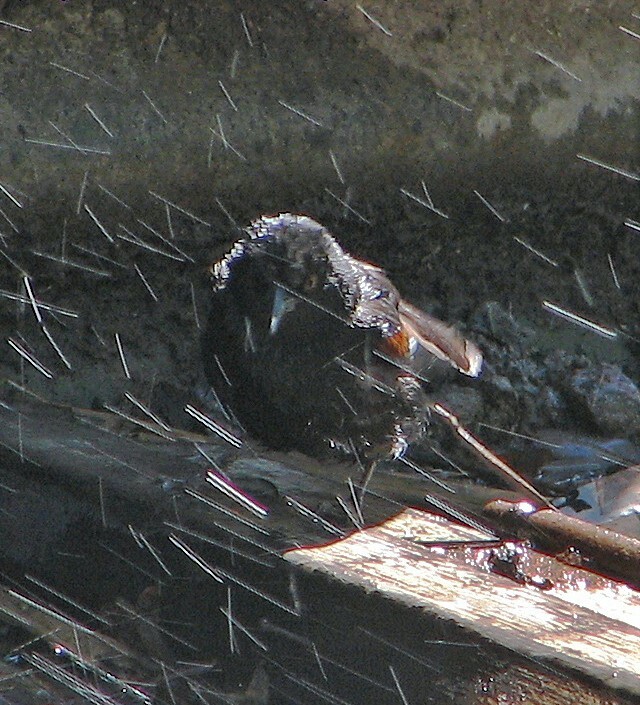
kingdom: Animalia
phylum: Chordata
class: Aves
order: Passeriformes
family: Icteridae
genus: Icterus
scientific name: Icterus cayanensis
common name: Epaulet oriole
